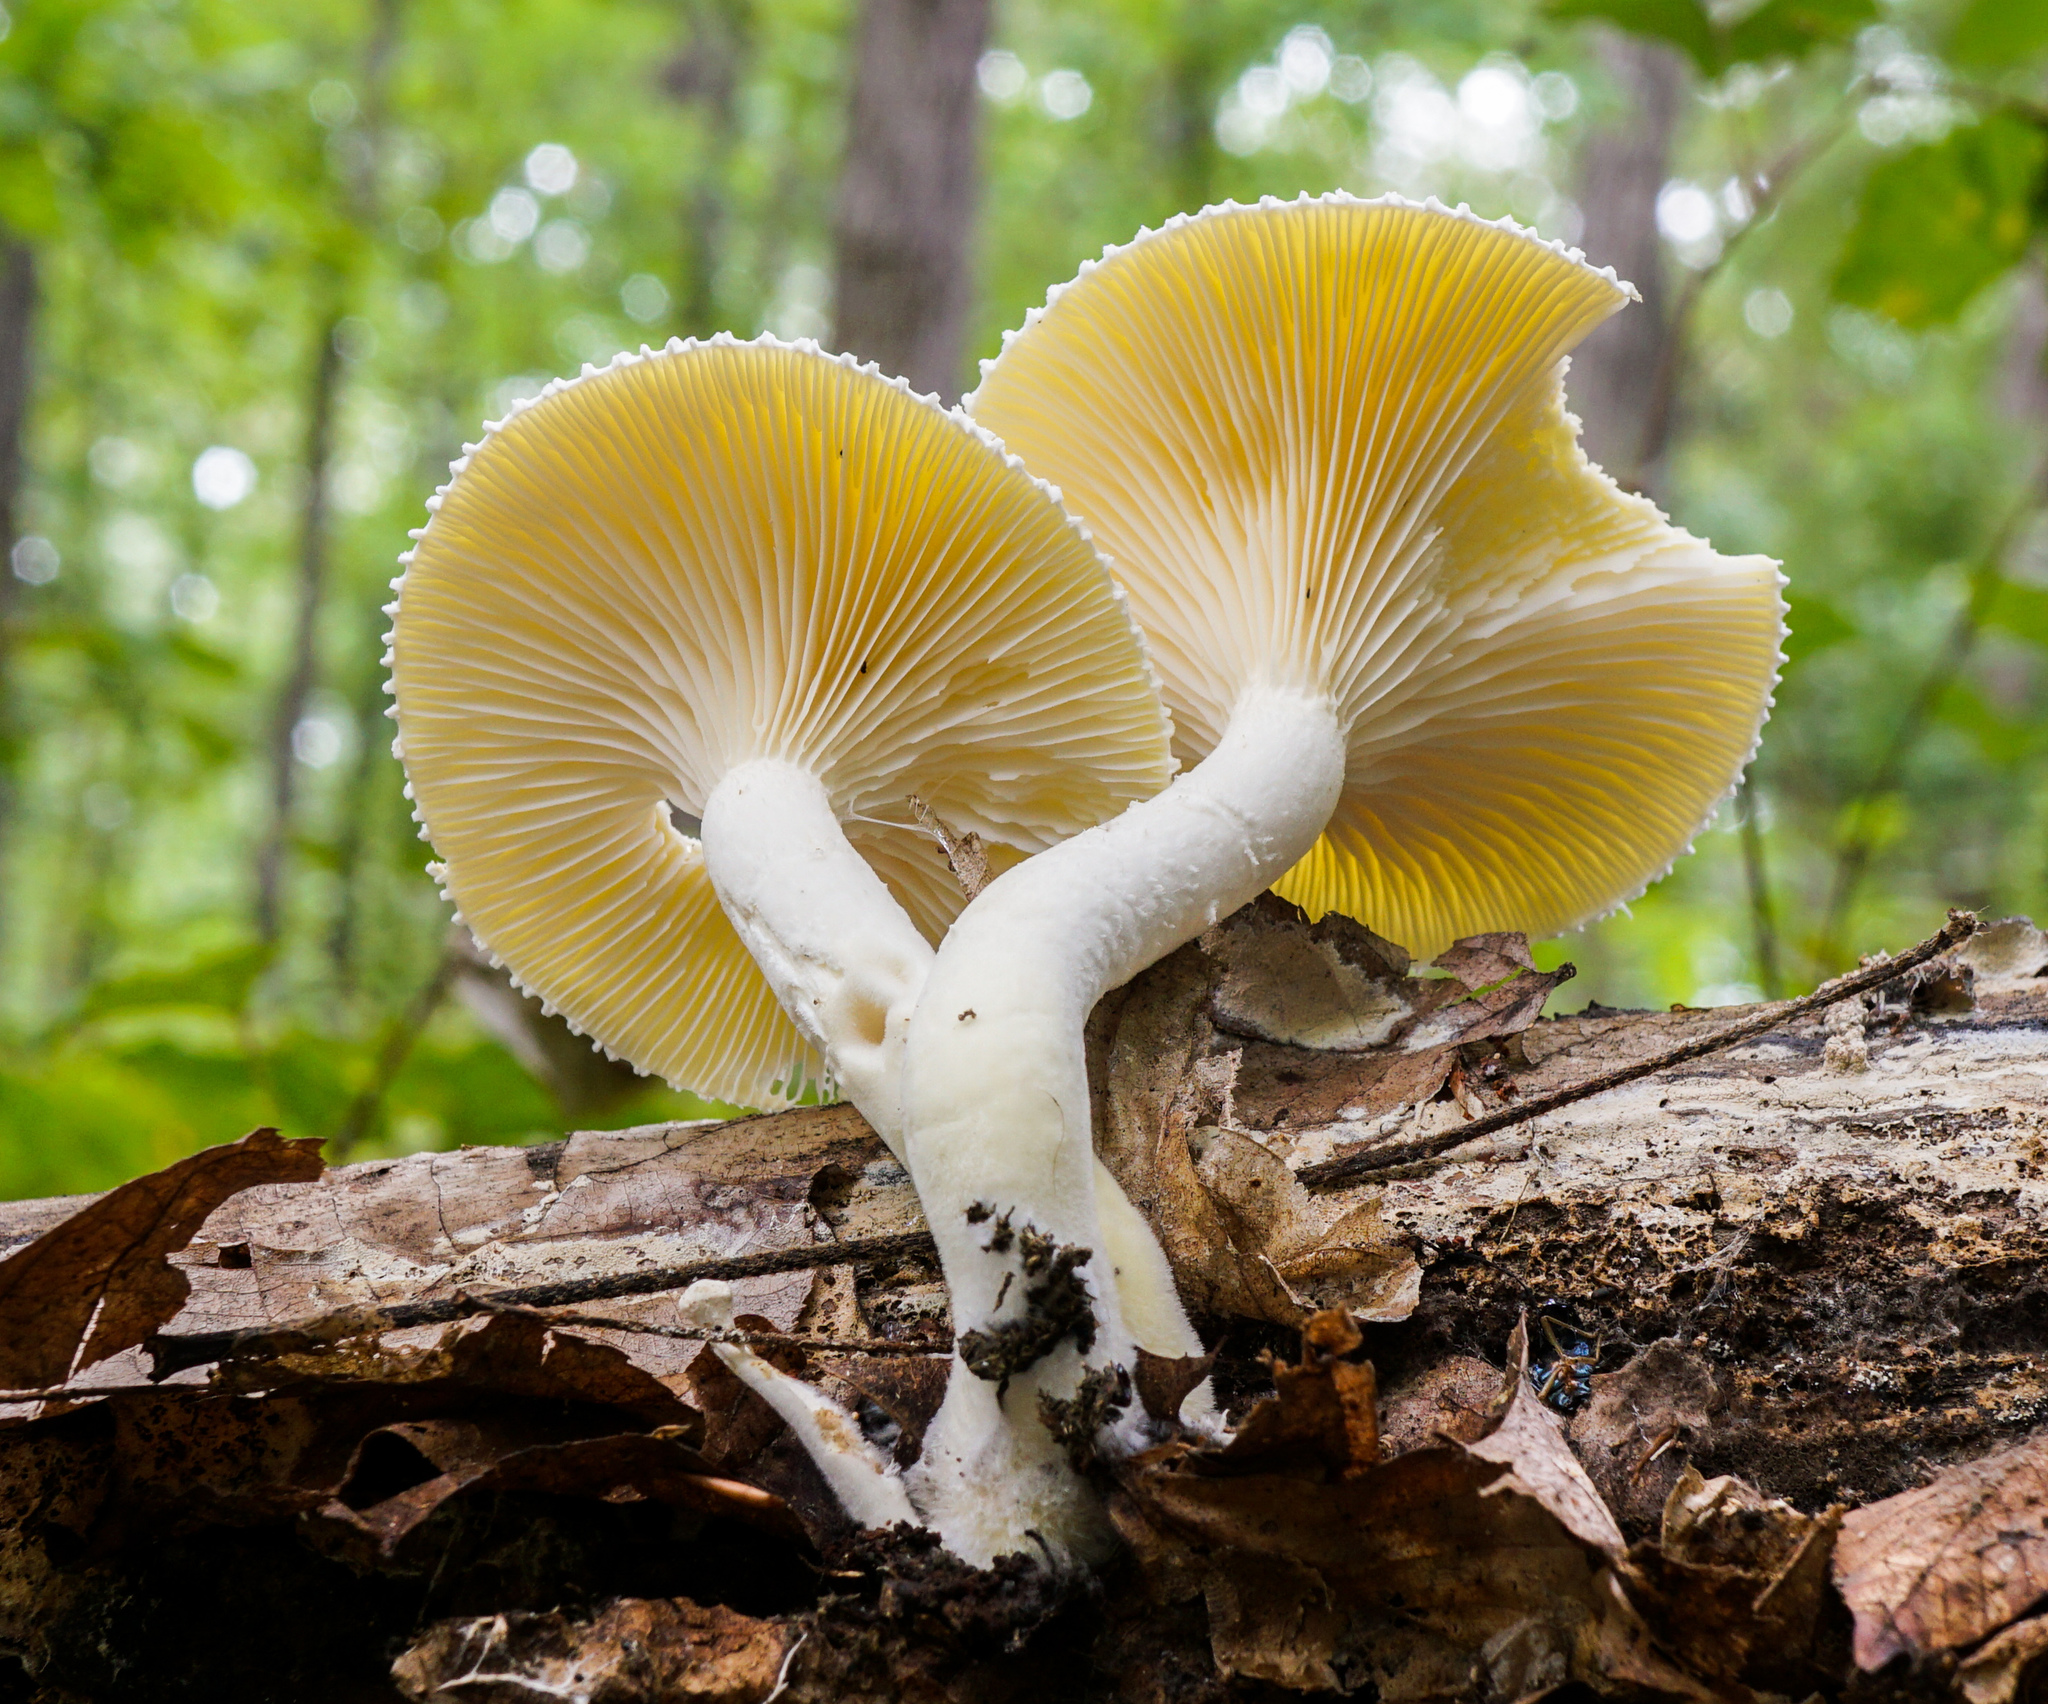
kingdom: Fungi
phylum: Basidiomycota
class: Agaricomycetes
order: Polyporales
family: Polyporaceae
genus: Lentinus
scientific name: Lentinus levis
